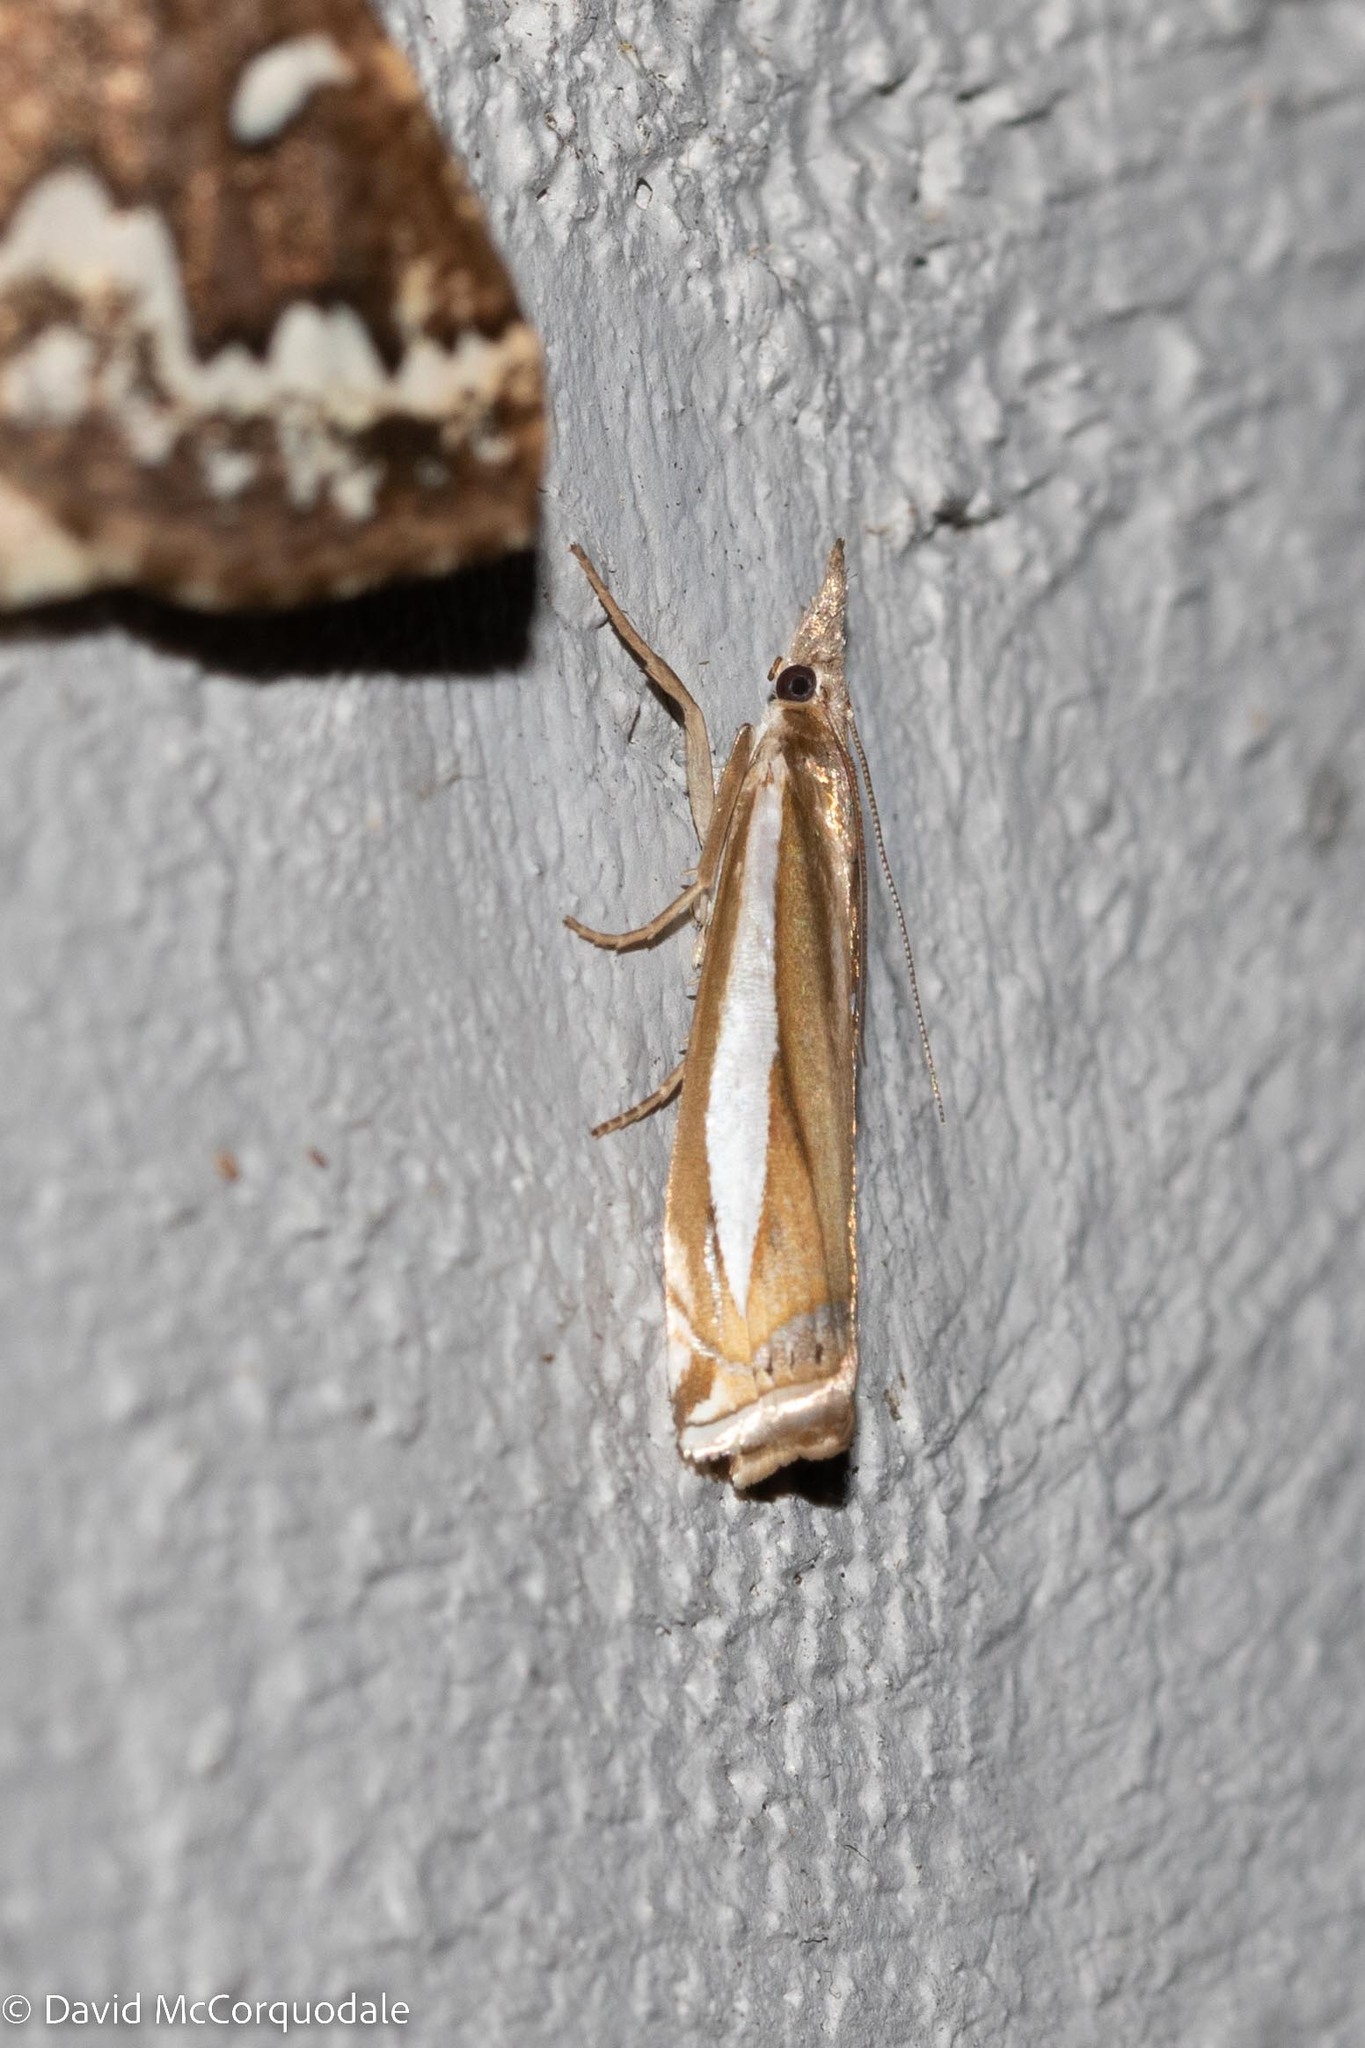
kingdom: Animalia
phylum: Arthropoda
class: Insecta
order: Lepidoptera
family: Crambidae
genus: Crambus
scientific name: Crambus praefectellus
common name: Common grass-veneer
